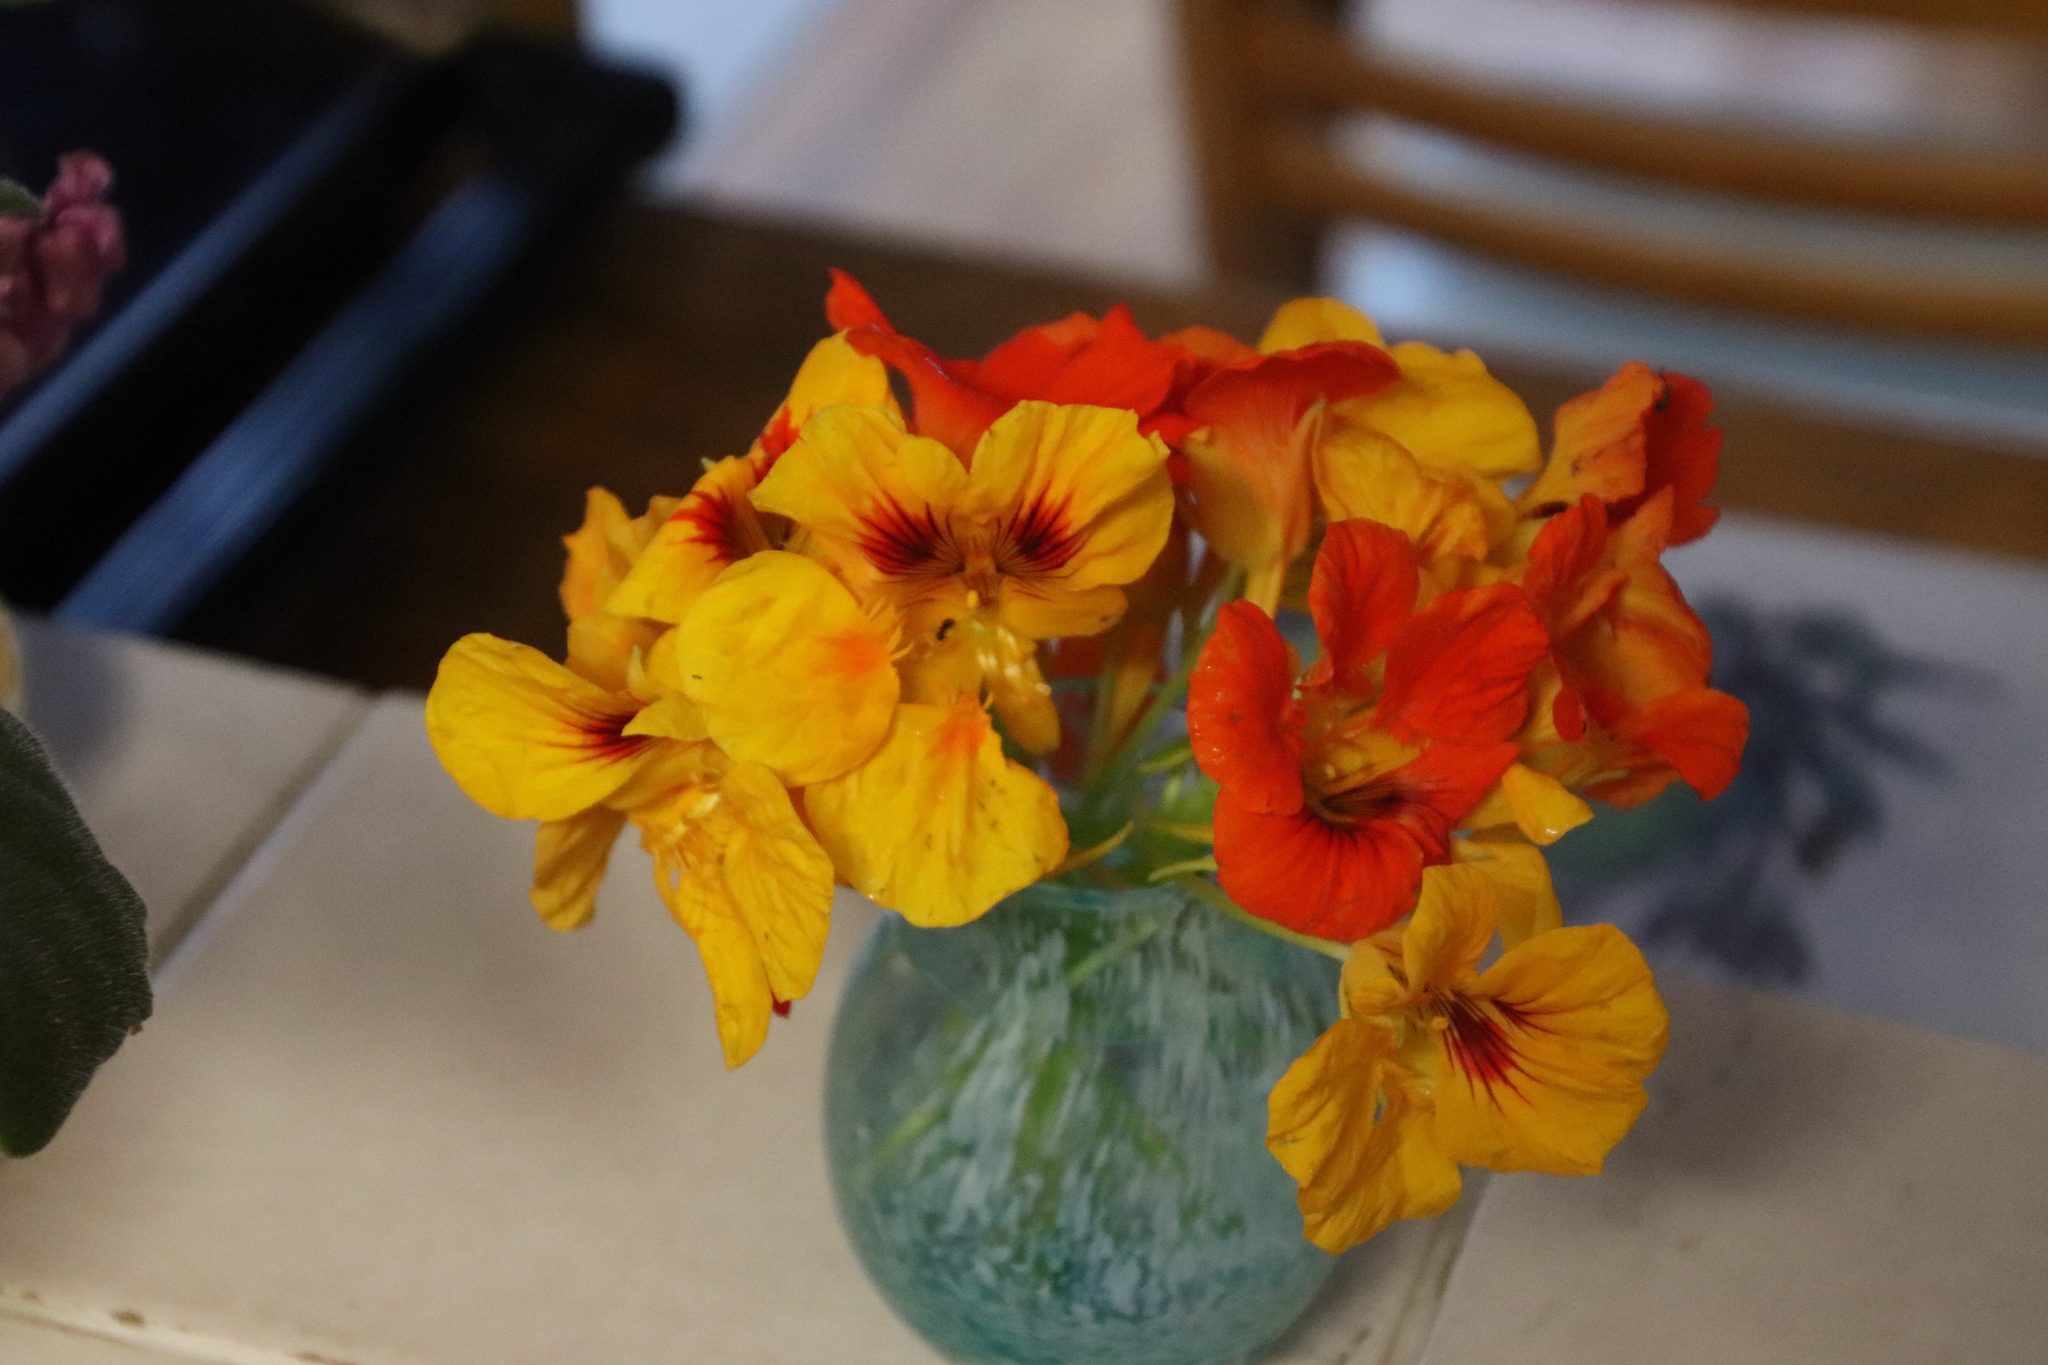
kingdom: Plantae
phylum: Tracheophyta
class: Magnoliopsida
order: Brassicales
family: Tropaeolaceae
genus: Tropaeolum
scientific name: Tropaeolum majus
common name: Nasturtium
